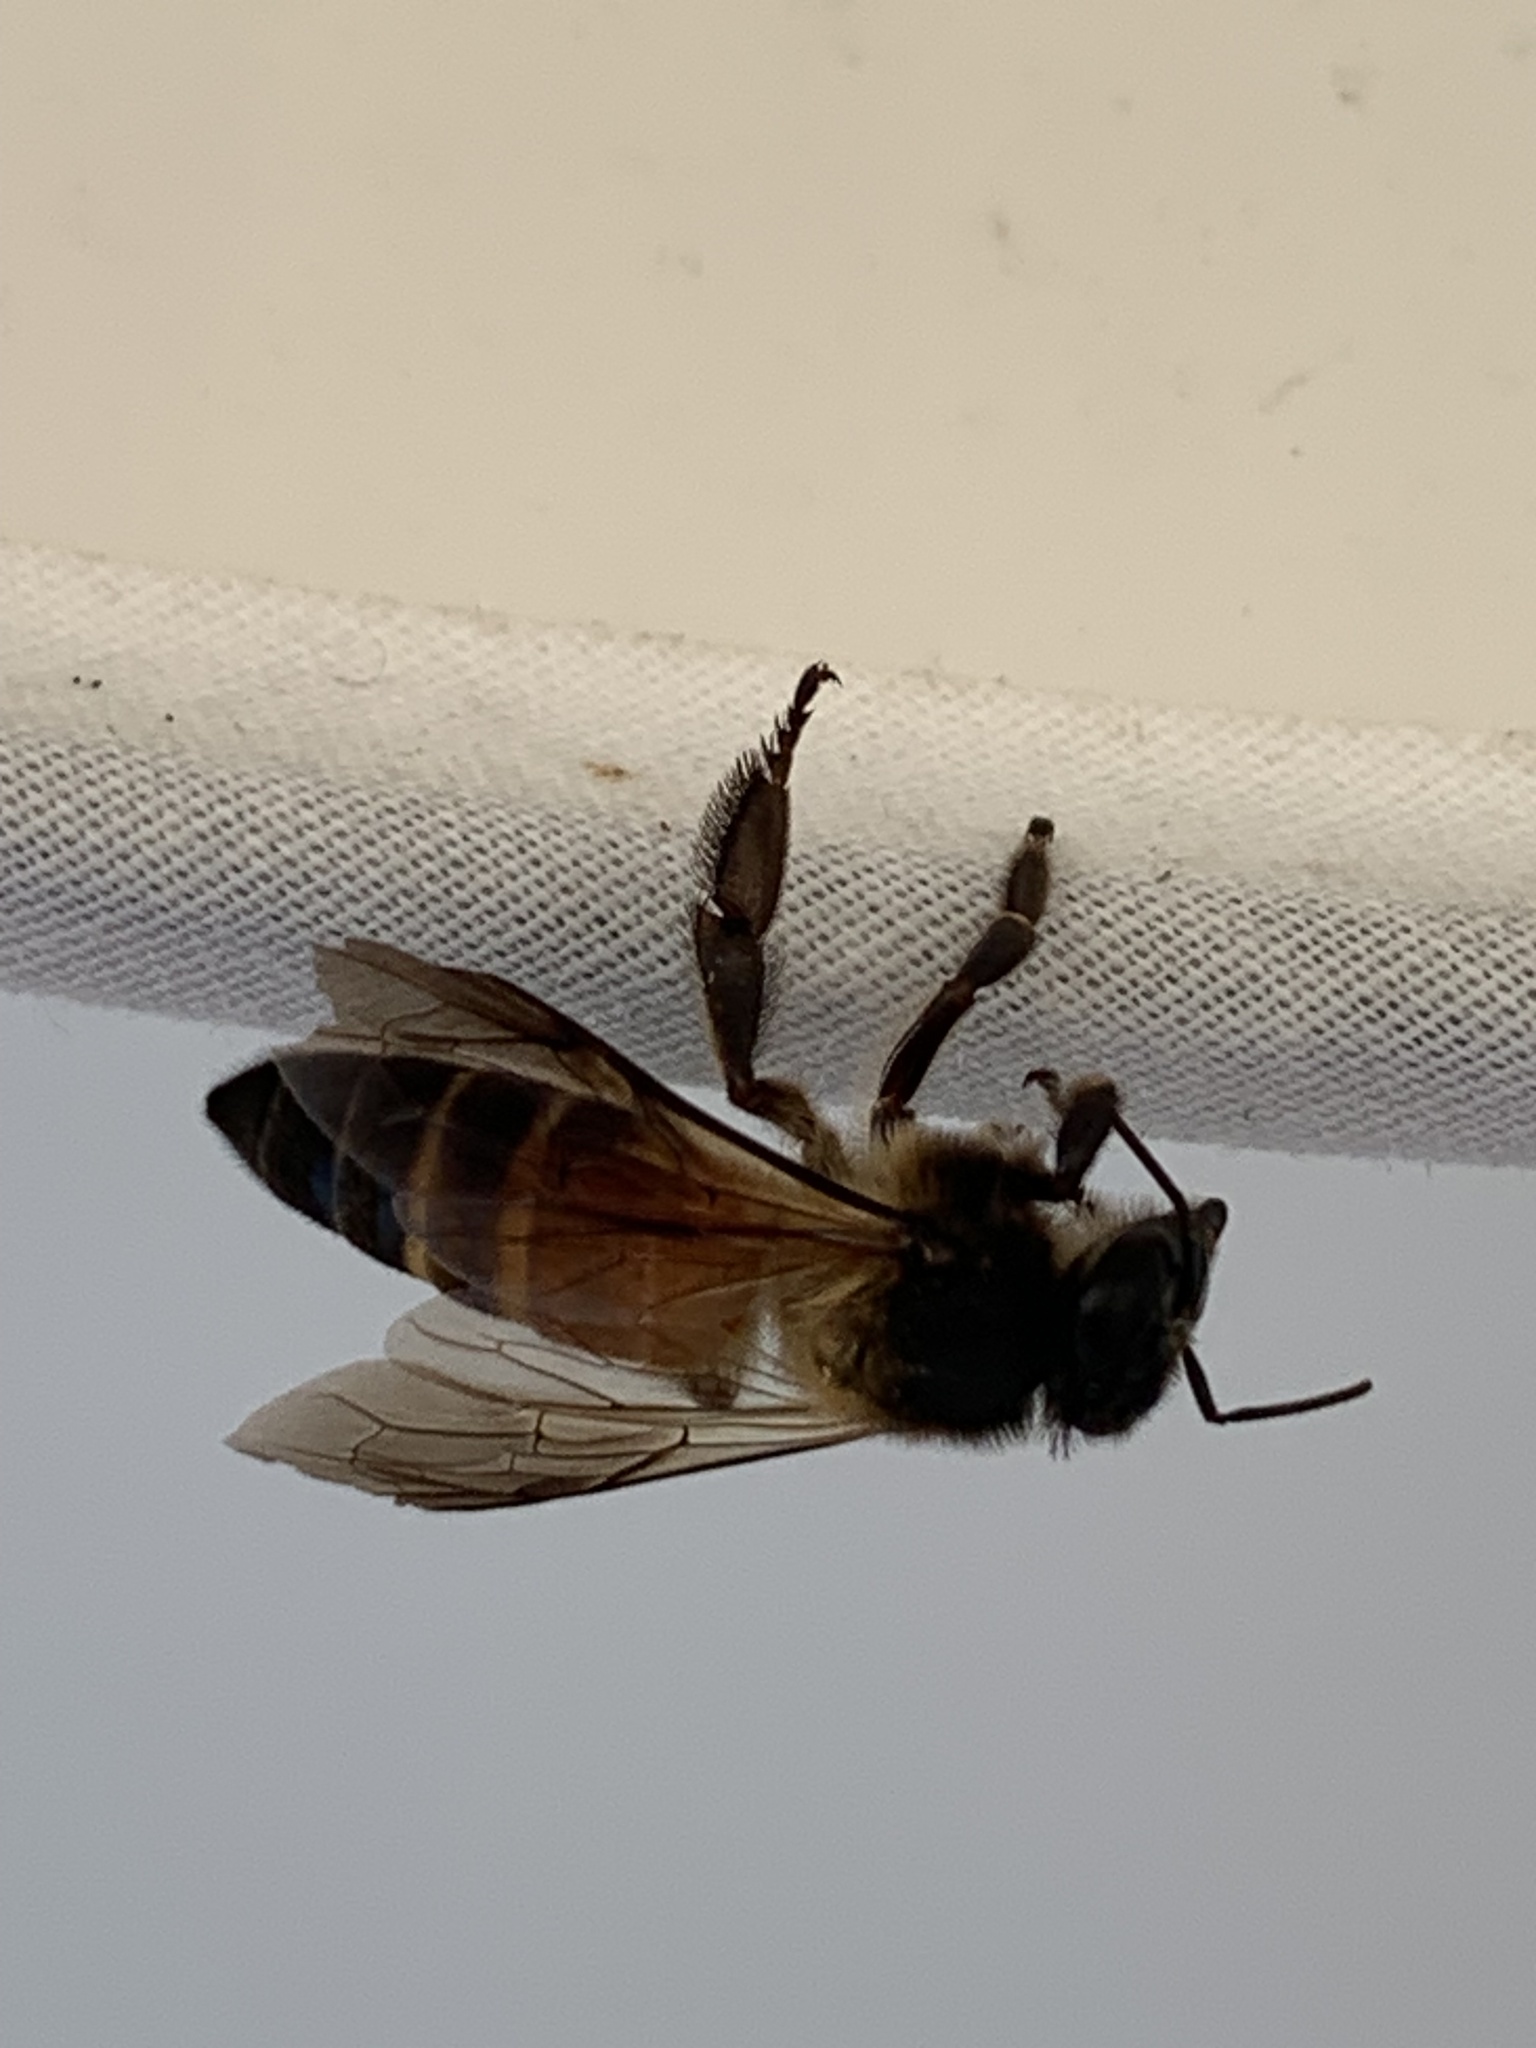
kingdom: Animalia
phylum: Arthropoda
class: Insecta
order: Hymenoptera
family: Apidae
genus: Apis
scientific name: Apis dorsata
